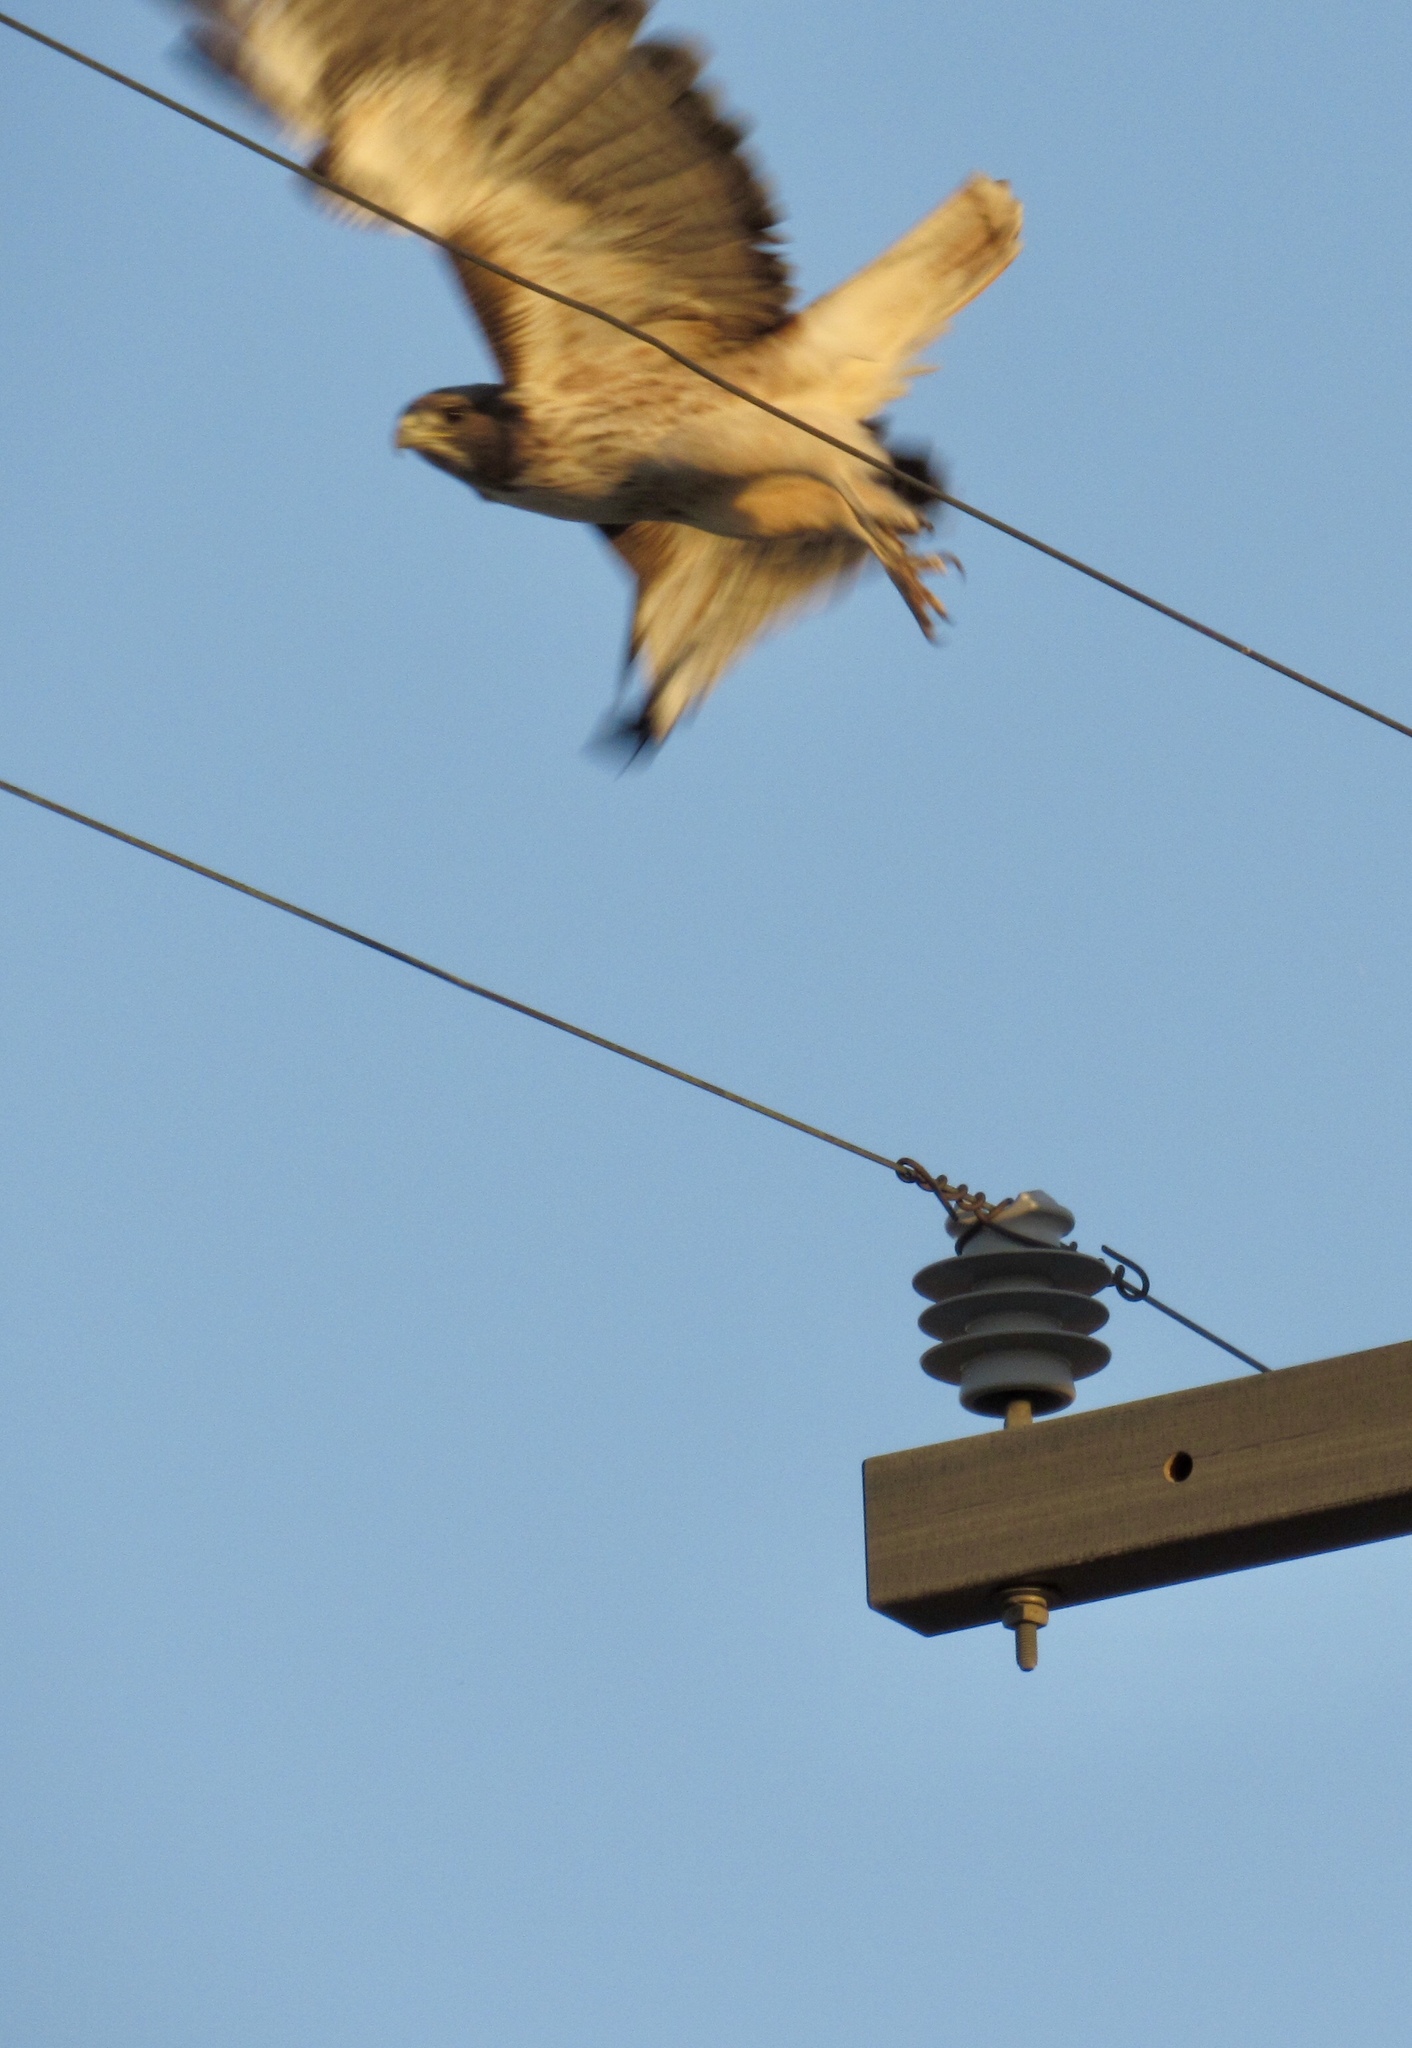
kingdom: Animalia
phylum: Chordata
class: Aves
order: Accipitriformes
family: Accipitridae
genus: Buteo
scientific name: Buteo jamaicensis
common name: Red-tailed hawk
